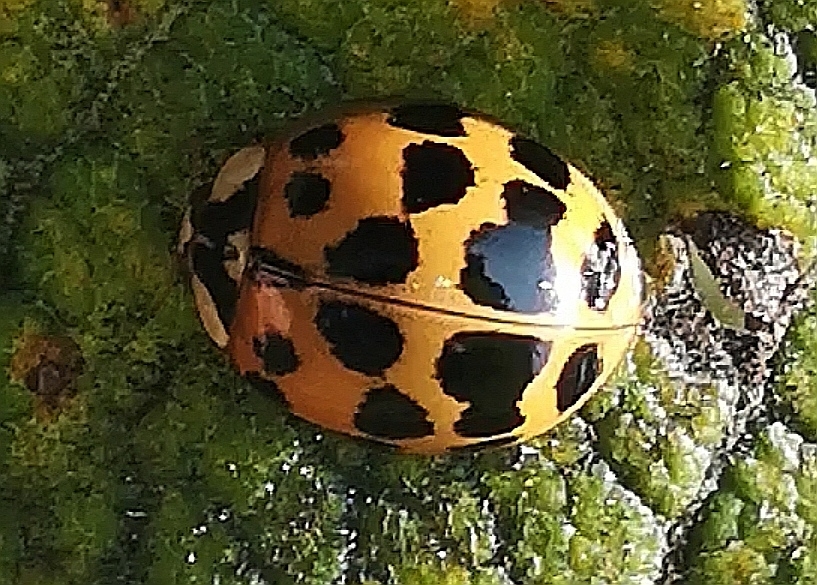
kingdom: Animalia
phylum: Arthropoda
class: Insecta
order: Coleoptera
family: Coccinellidae
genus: Harmonia
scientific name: Harmonia axyridis
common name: Harlequin ladybird
